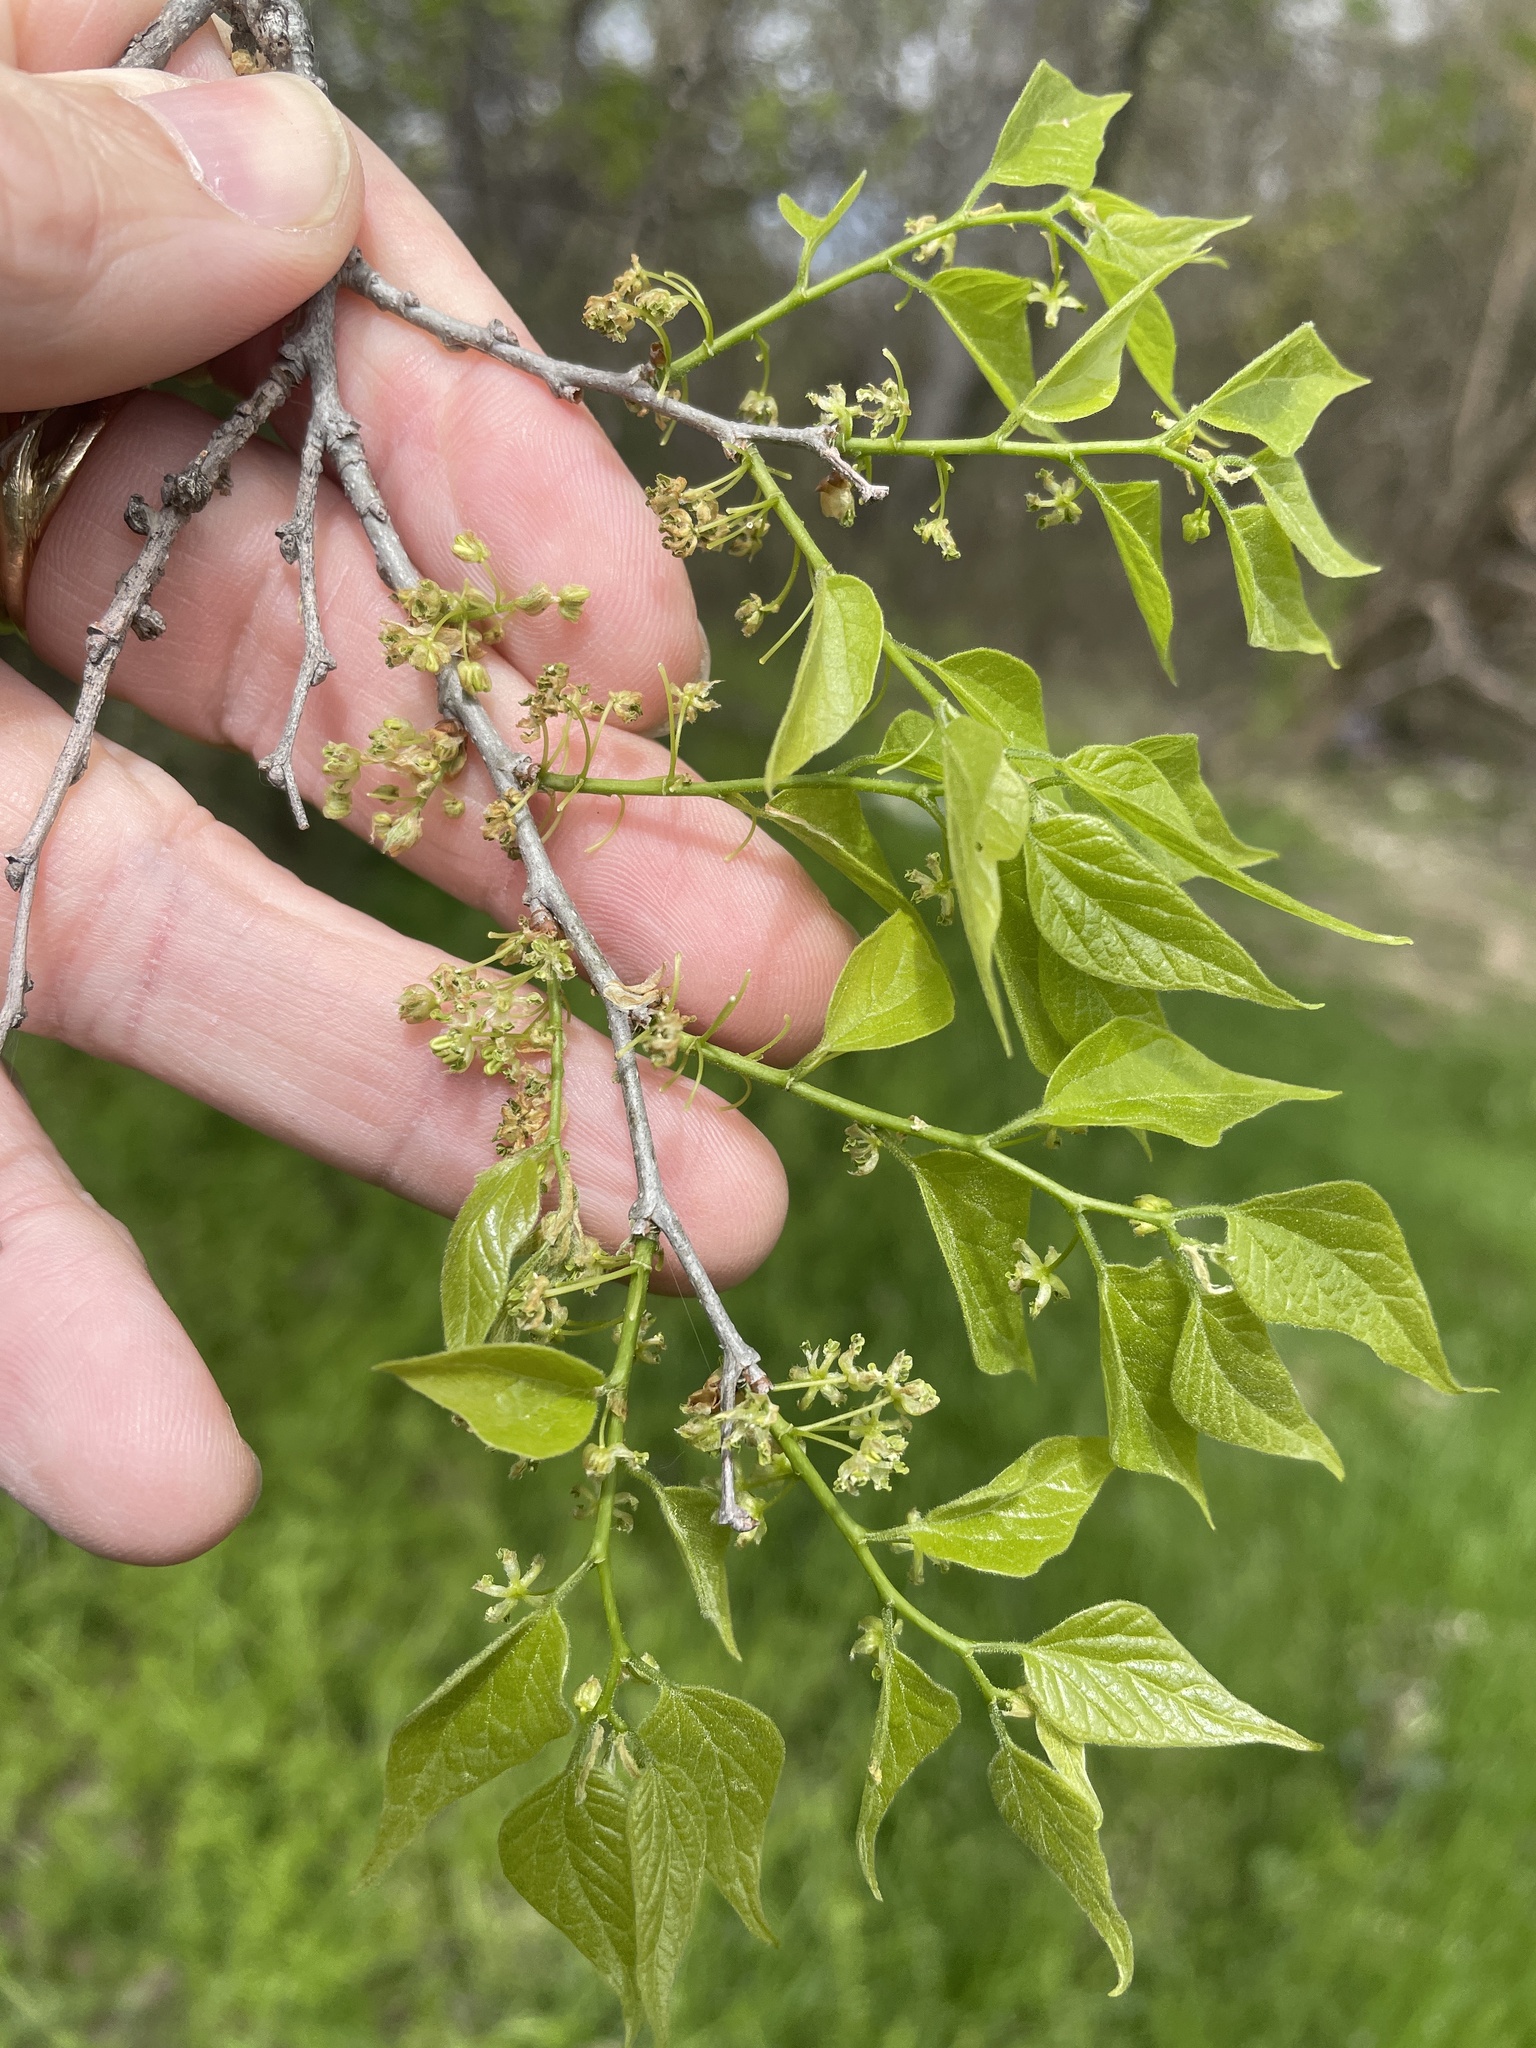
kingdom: Plantae
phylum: Tracheophyta
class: Magnoliopsida
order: Rosales
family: Cannabaceae
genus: Celtis
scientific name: Celtis laevigata
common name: Sugarberry
